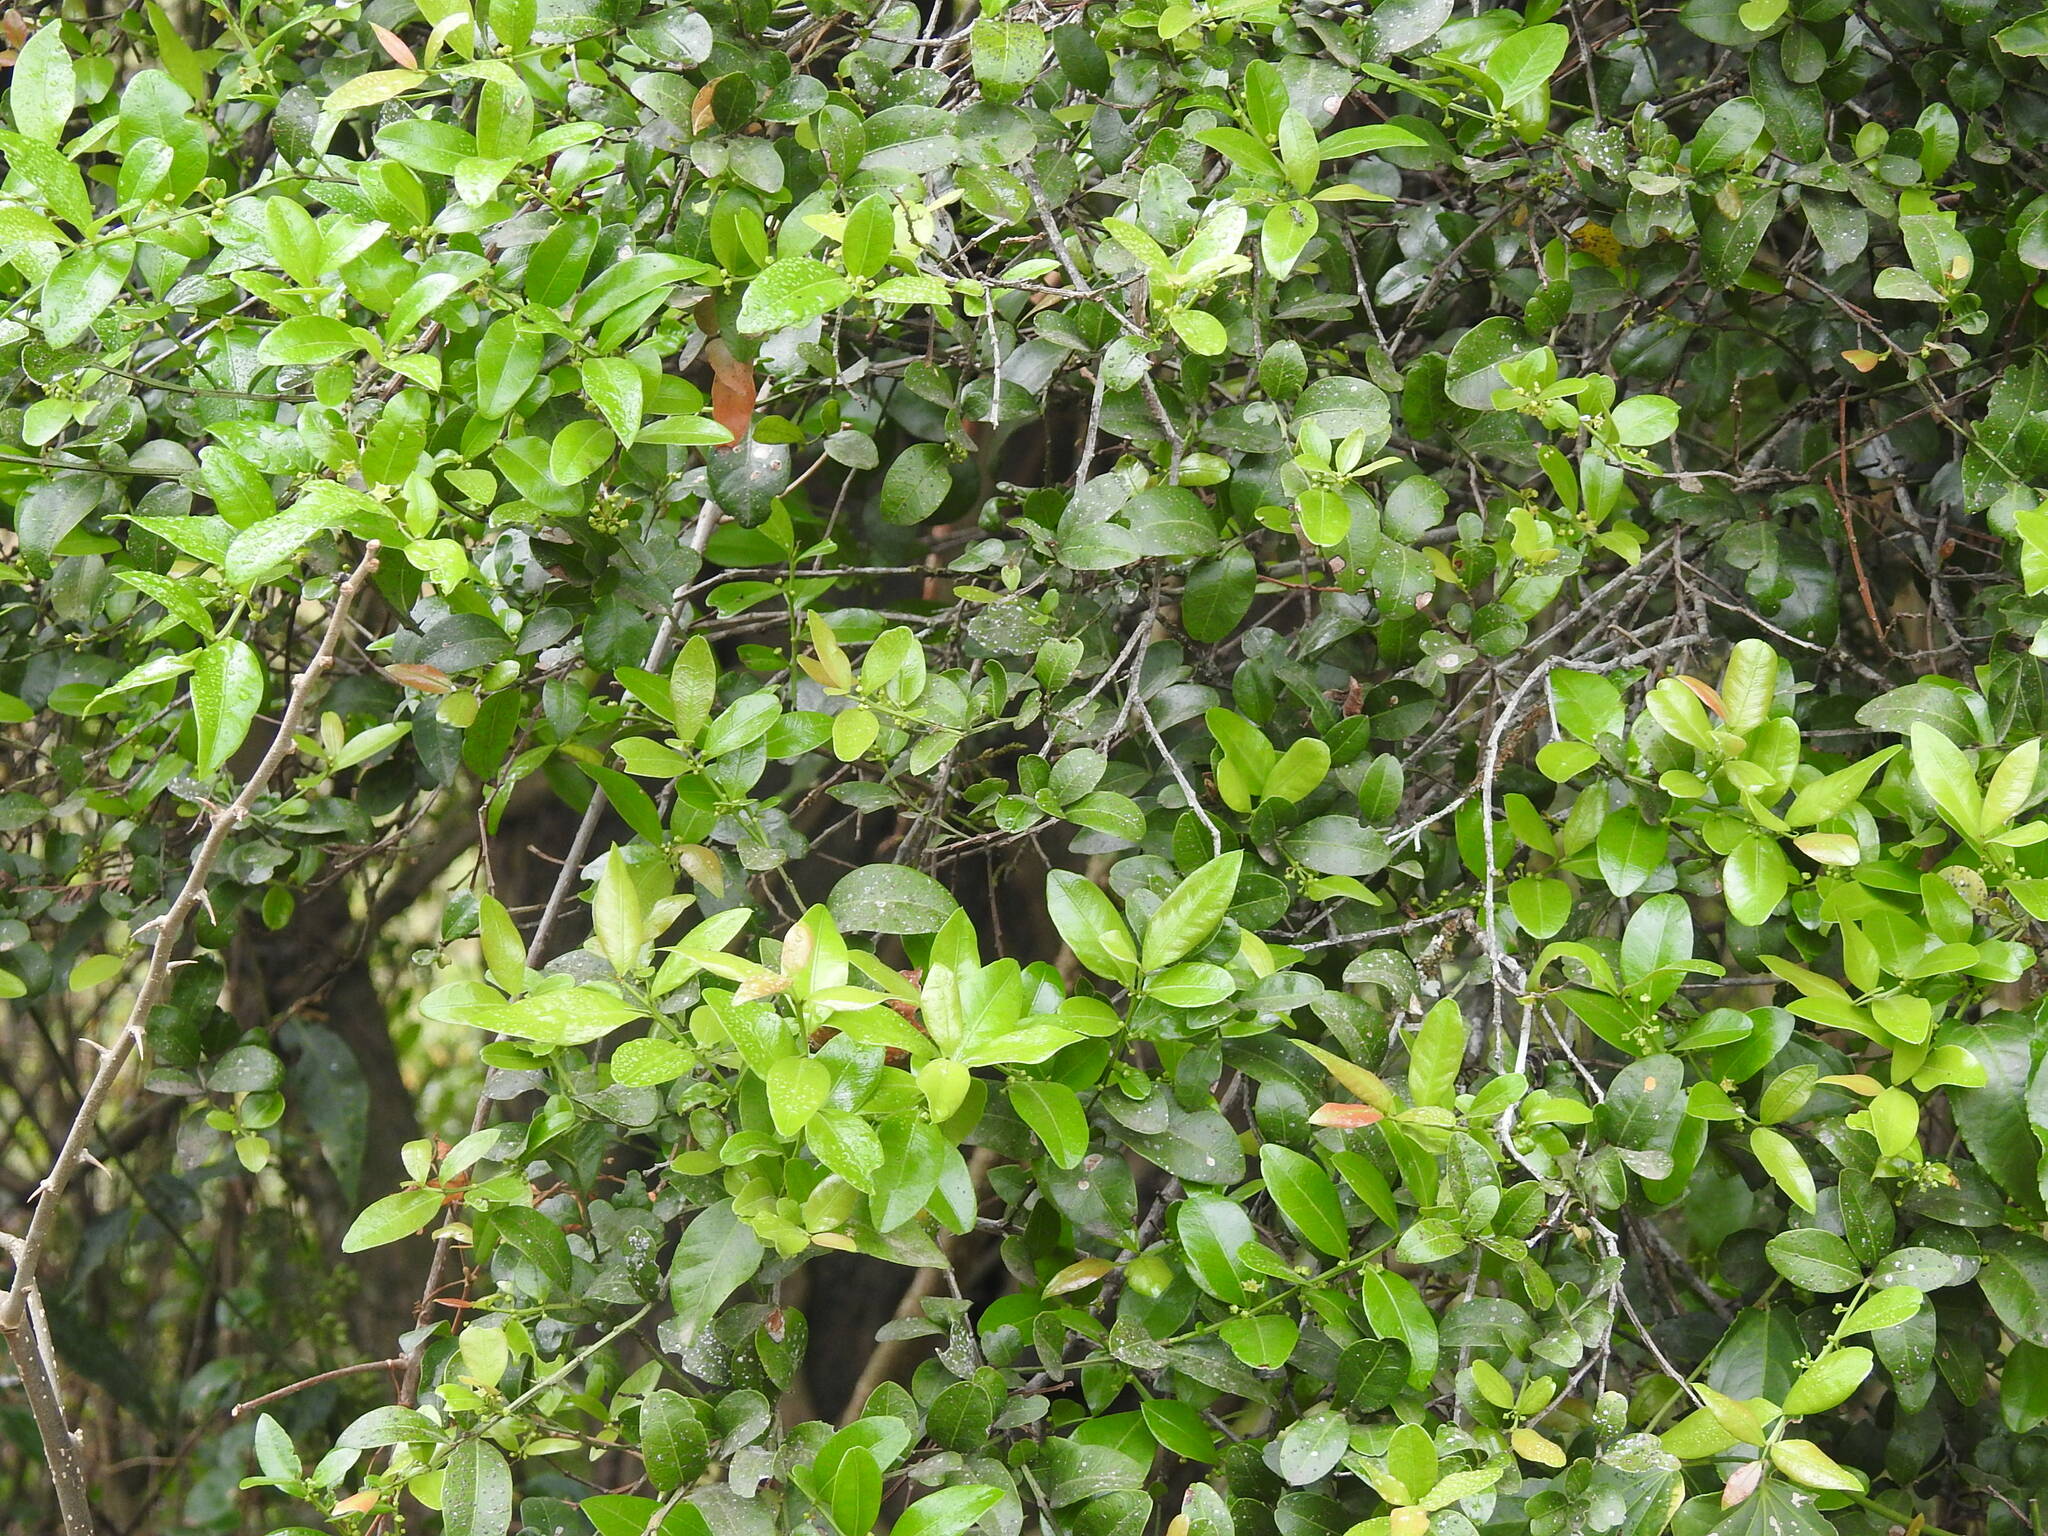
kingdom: Plantae
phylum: Tracheophyta
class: Magnoliopsida
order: Rosales
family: Rhamnaceae
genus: Scutia
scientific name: Scutia buxifolia
